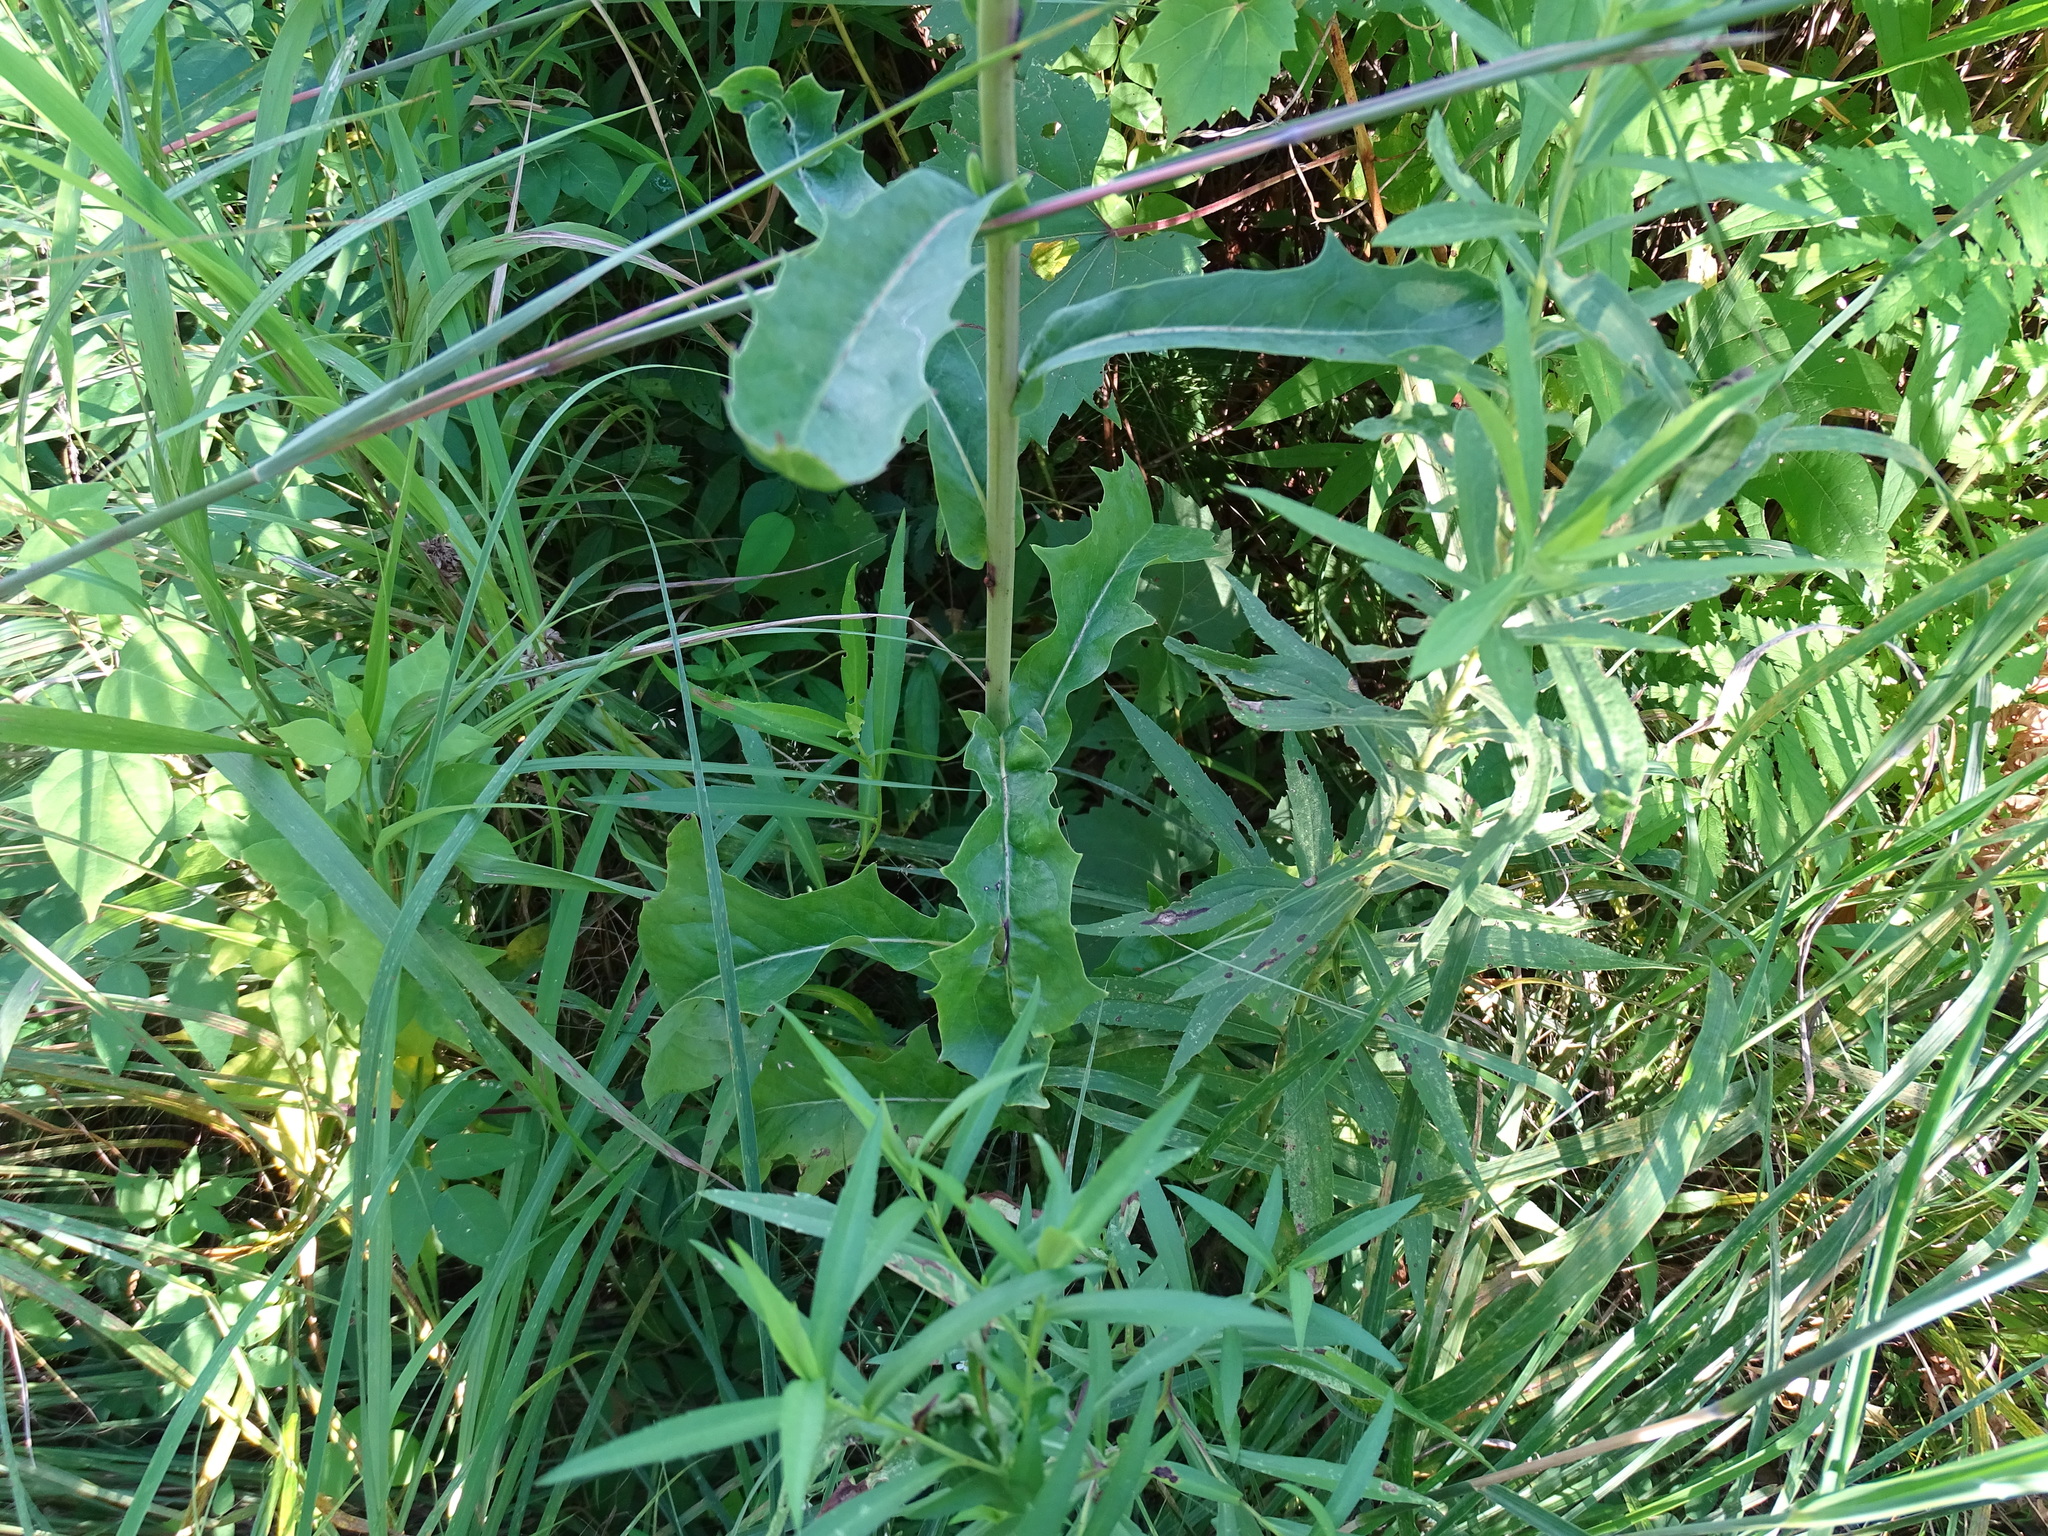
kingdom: Plantae
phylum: Tracheophyta
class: Magnoliopsida
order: Asterales
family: Asteraceae
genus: Nabalus
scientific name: Nabalus racemosus
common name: Glaucous white lettuce
